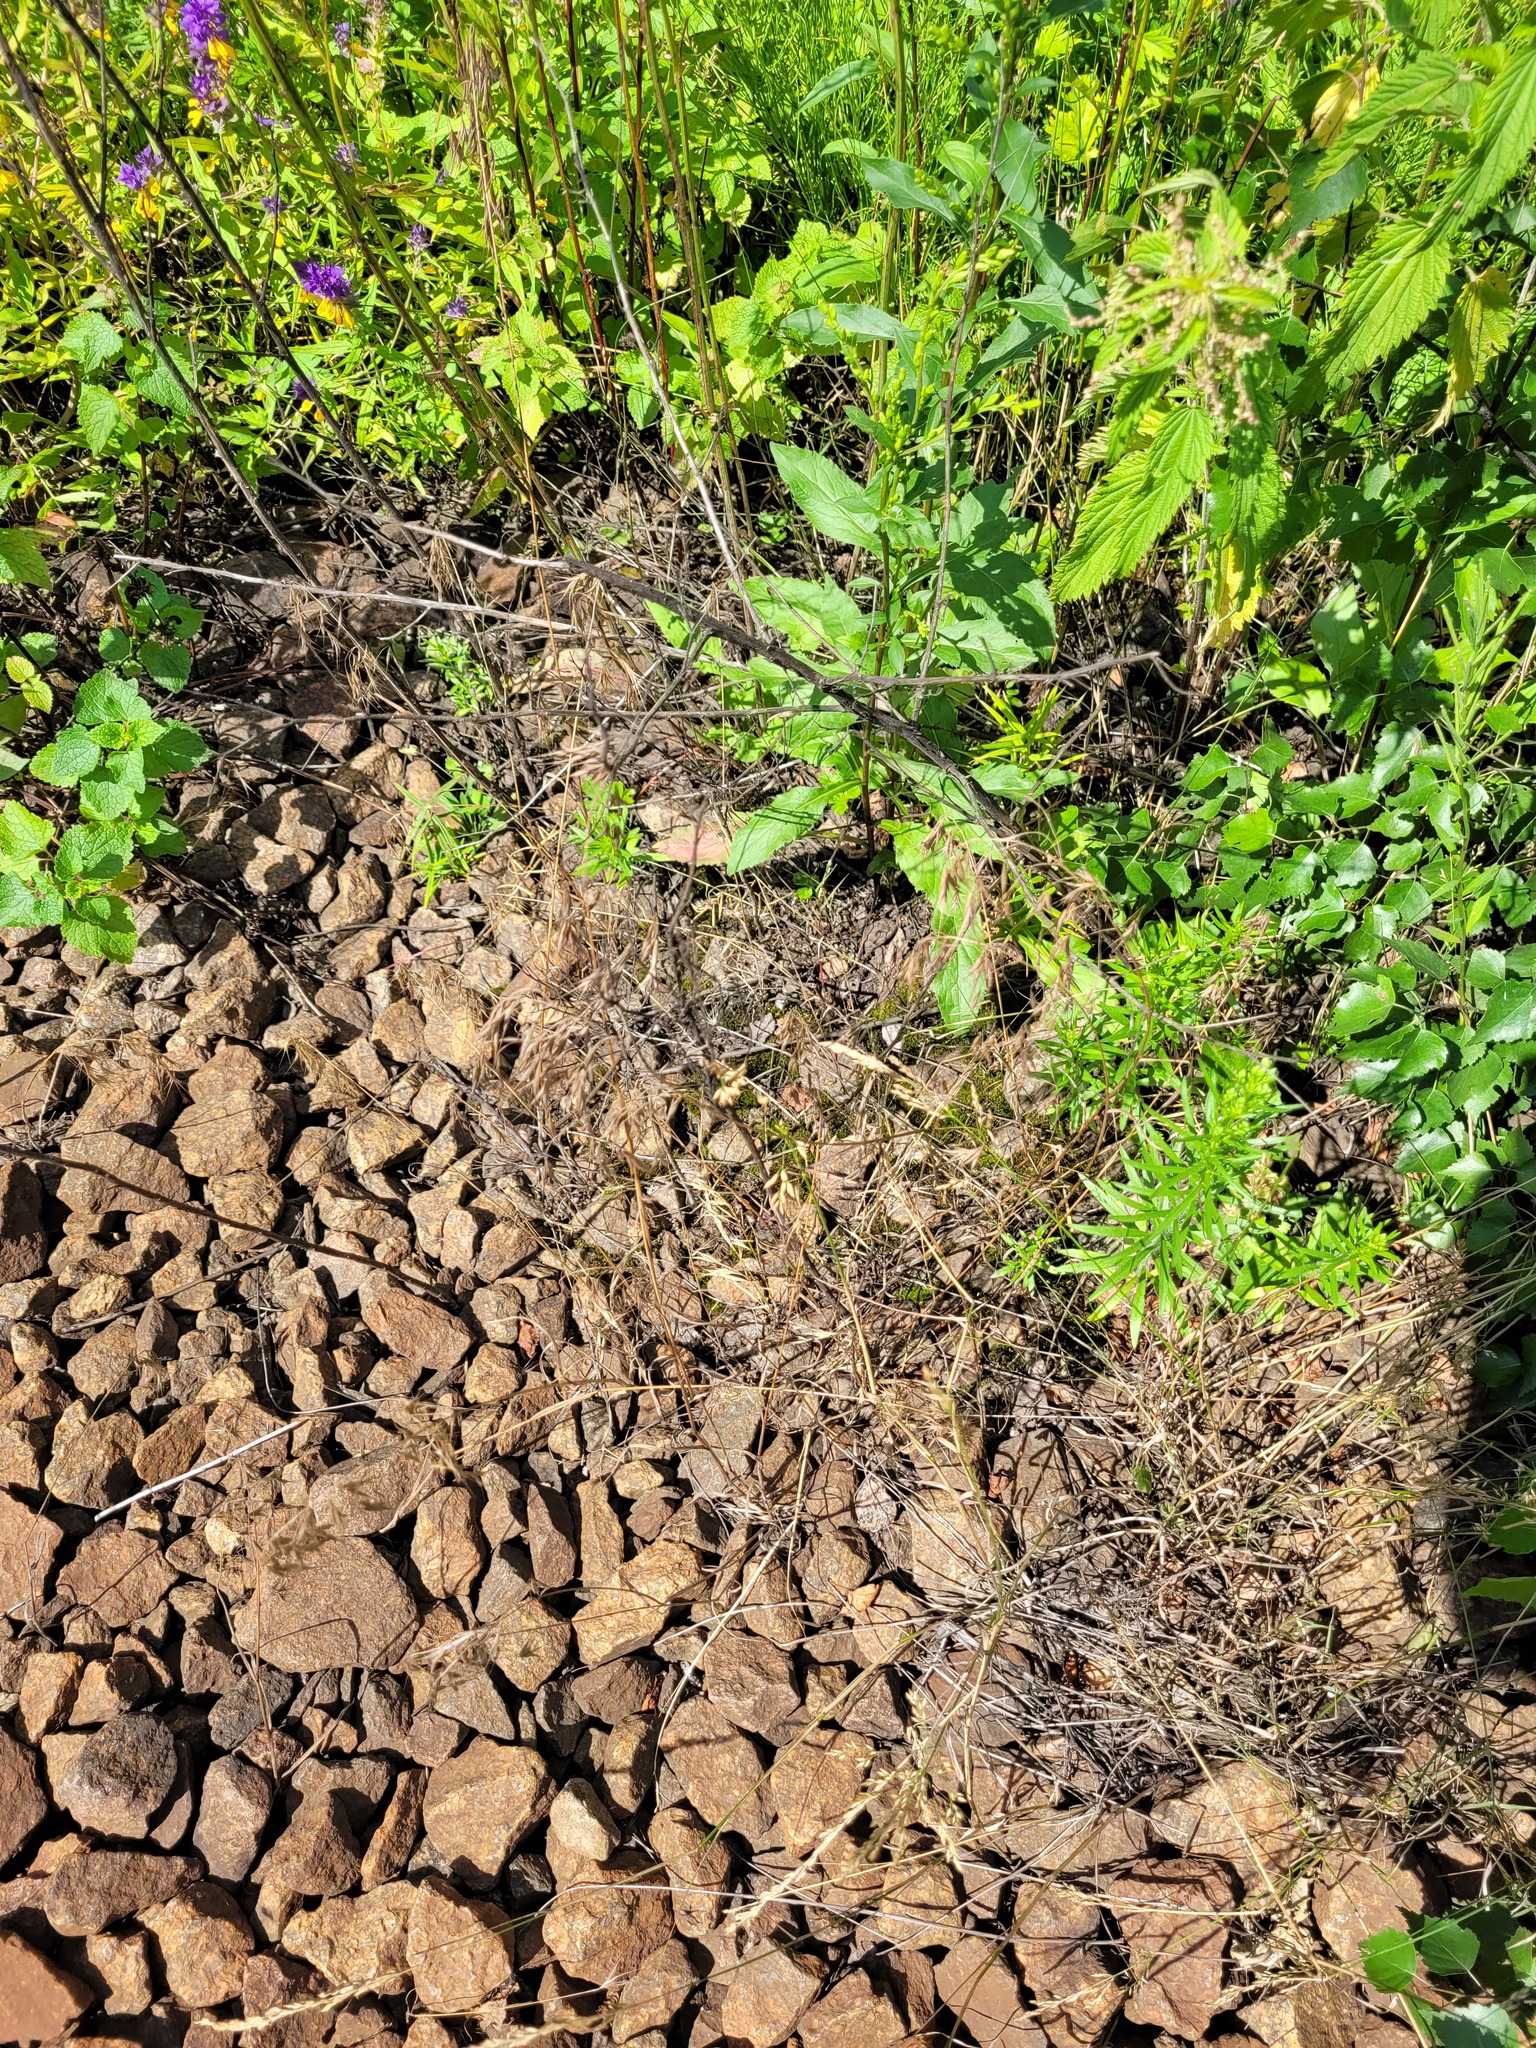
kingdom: Plantae
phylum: Tracheophyta
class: Liliopsida
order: Poales
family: Poaceae
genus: Bromus
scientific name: Bromus tectorum
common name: Cheatgrass
